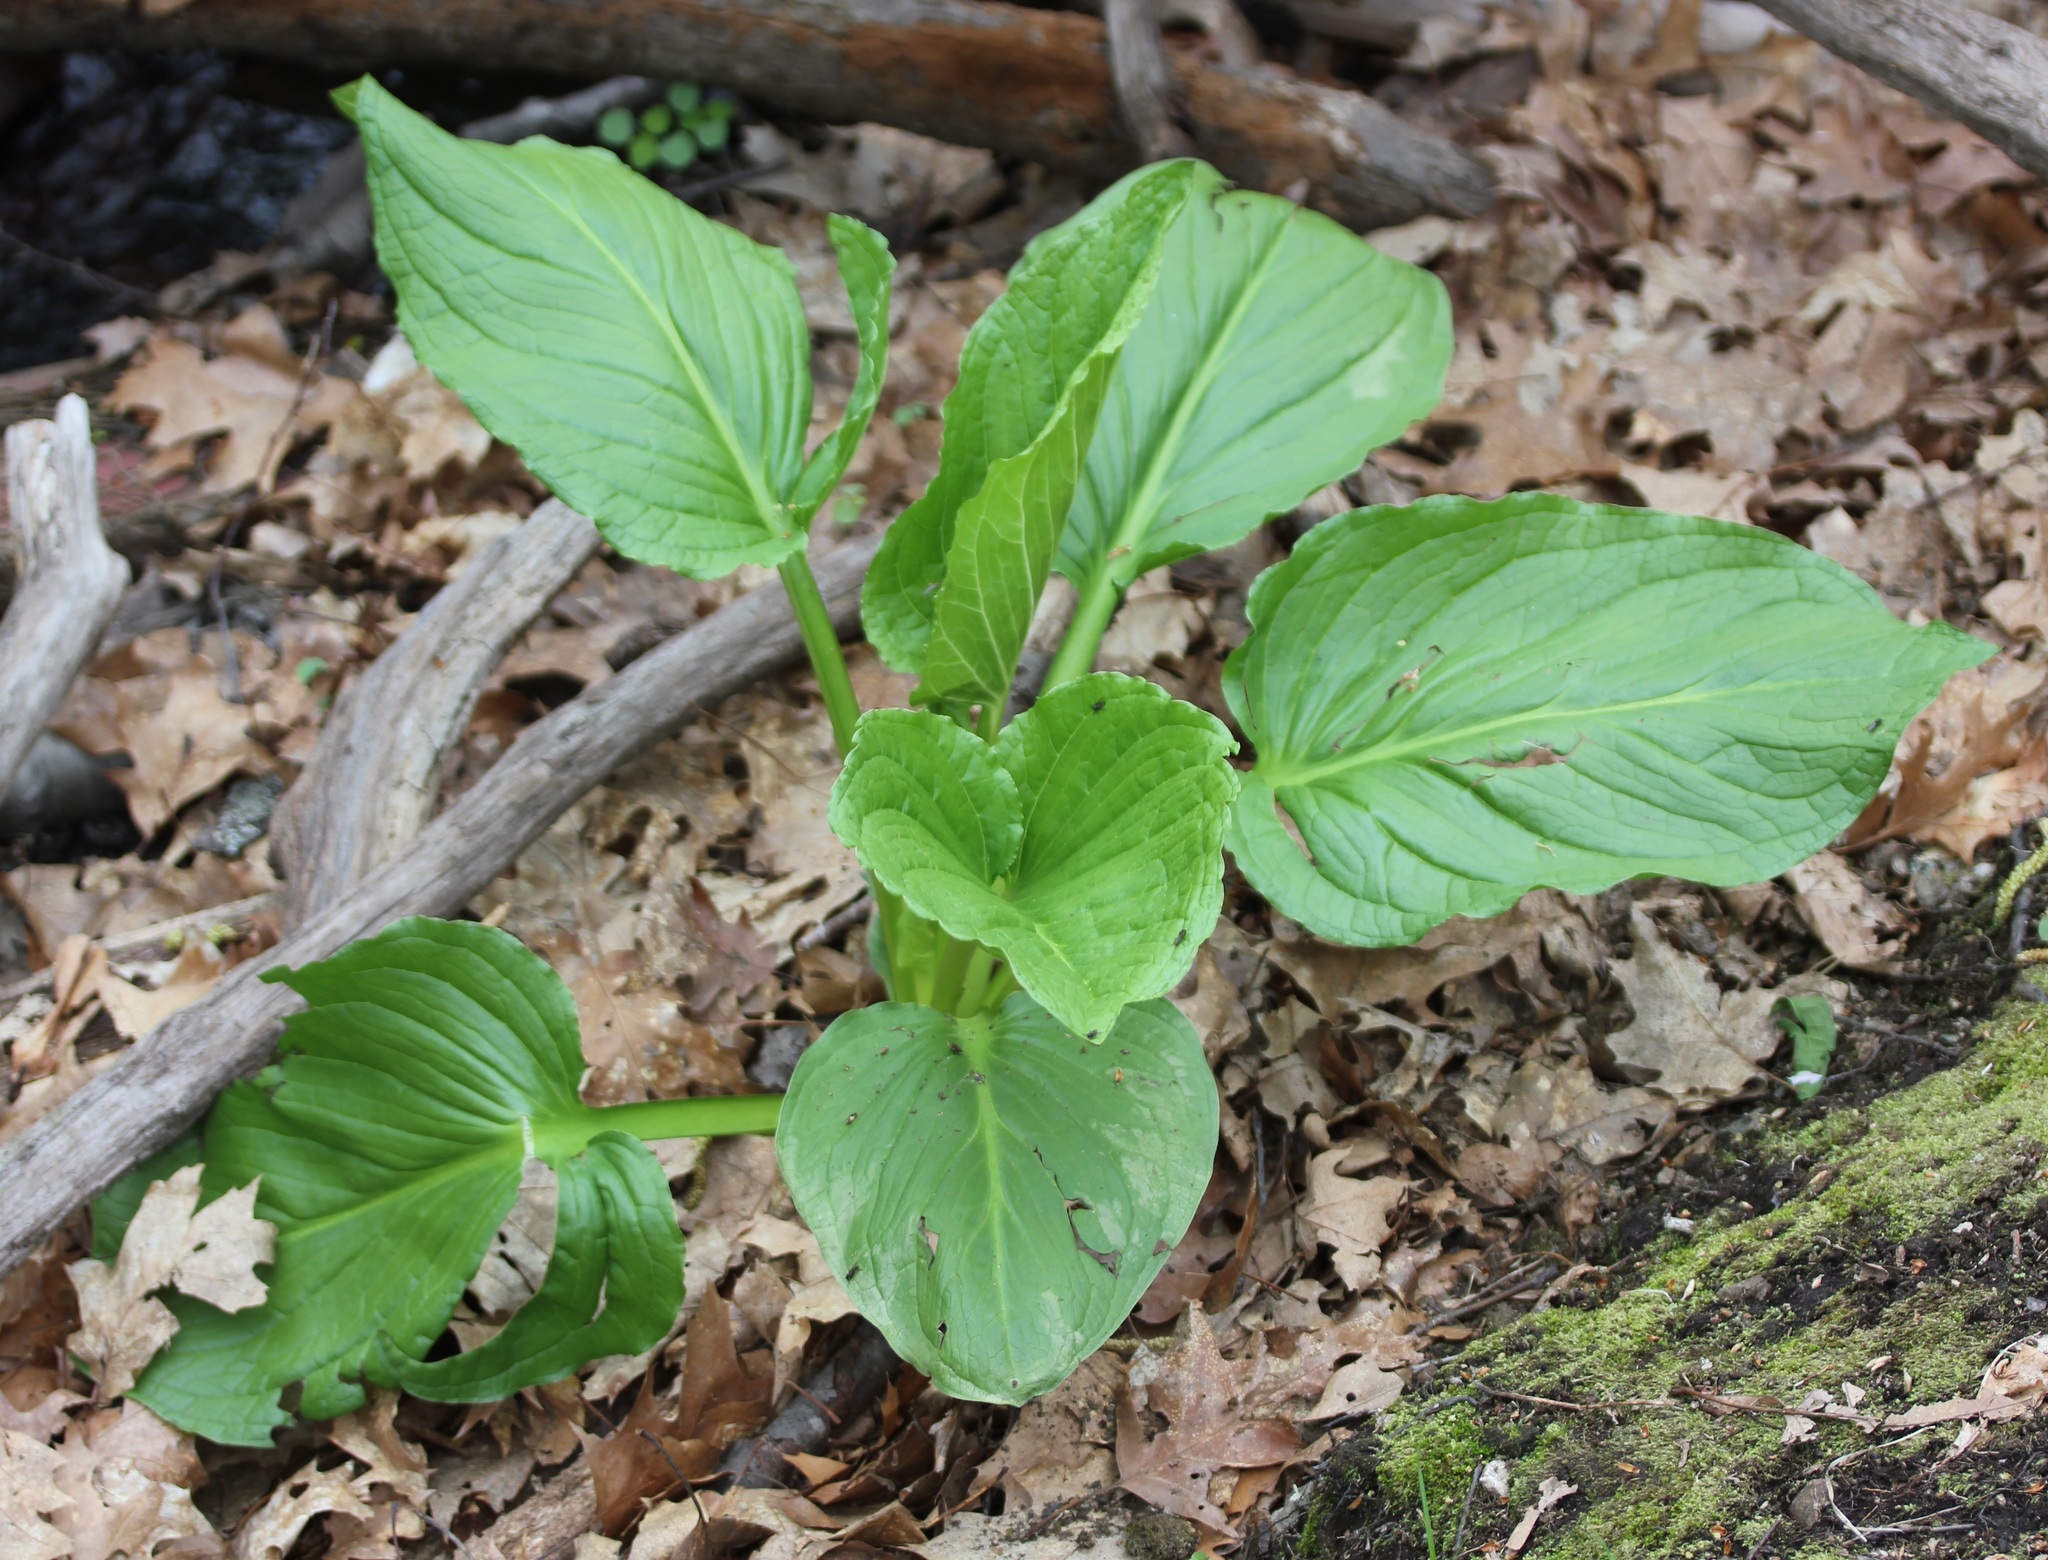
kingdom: Plantae
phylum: Tracheophyta
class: Liliopsida
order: Alismatales
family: Araceae
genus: Symplocarpus
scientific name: Symplocarpus foetidus
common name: Eastern skunk cabbage
